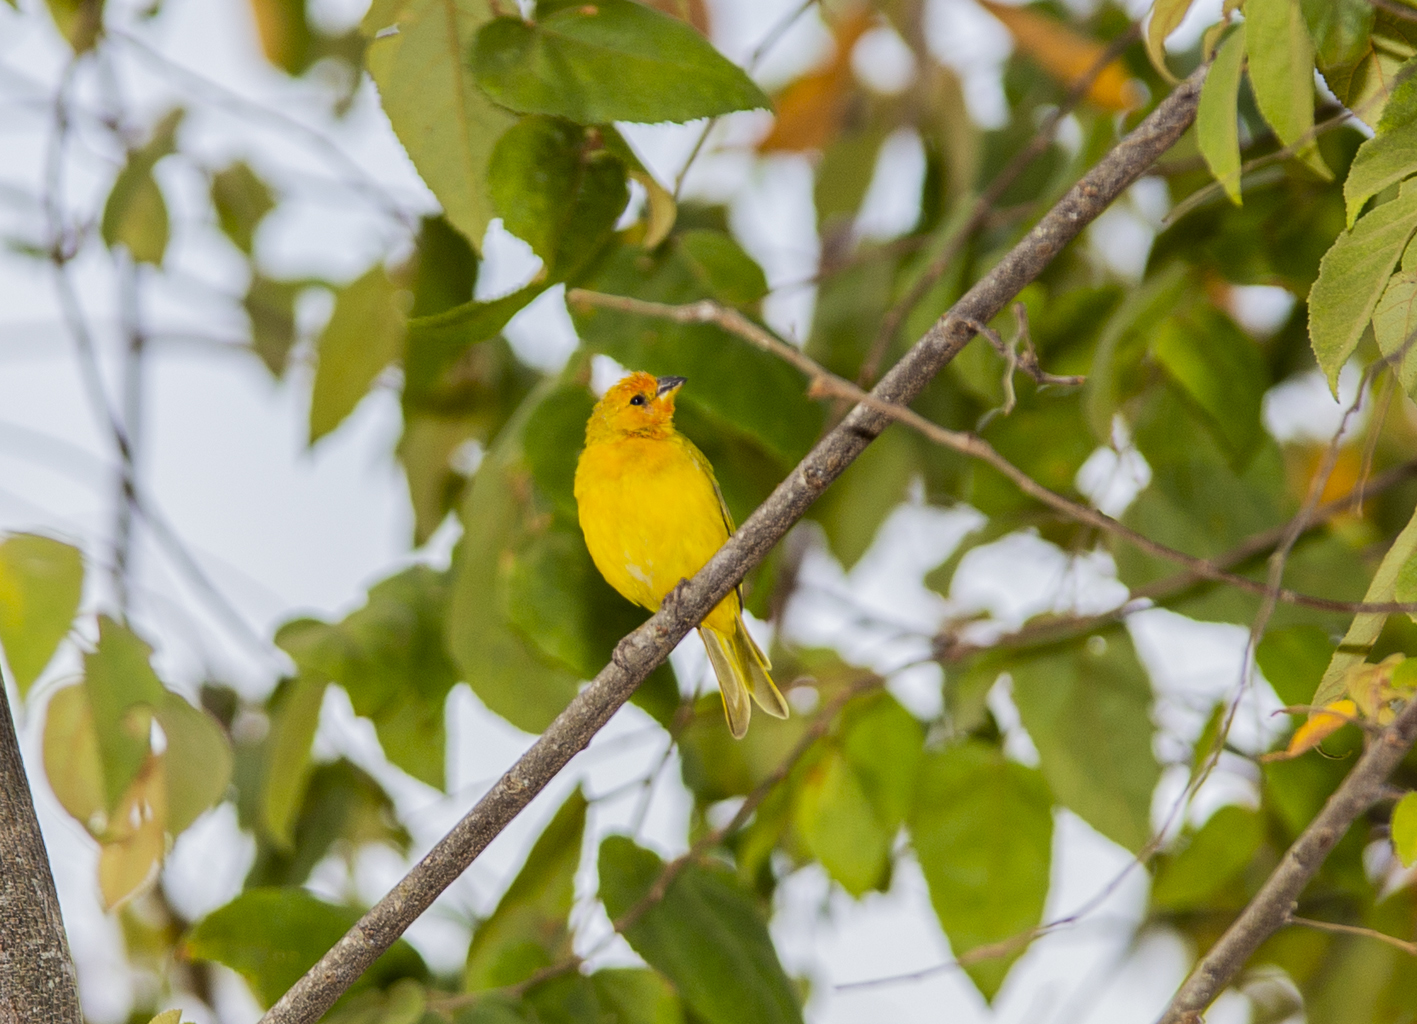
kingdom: Animalia
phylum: Chordata
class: Aves
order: Passeriformes
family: Thraupidae
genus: Sicalis
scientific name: Sicalis flaveola
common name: Saffron finch
